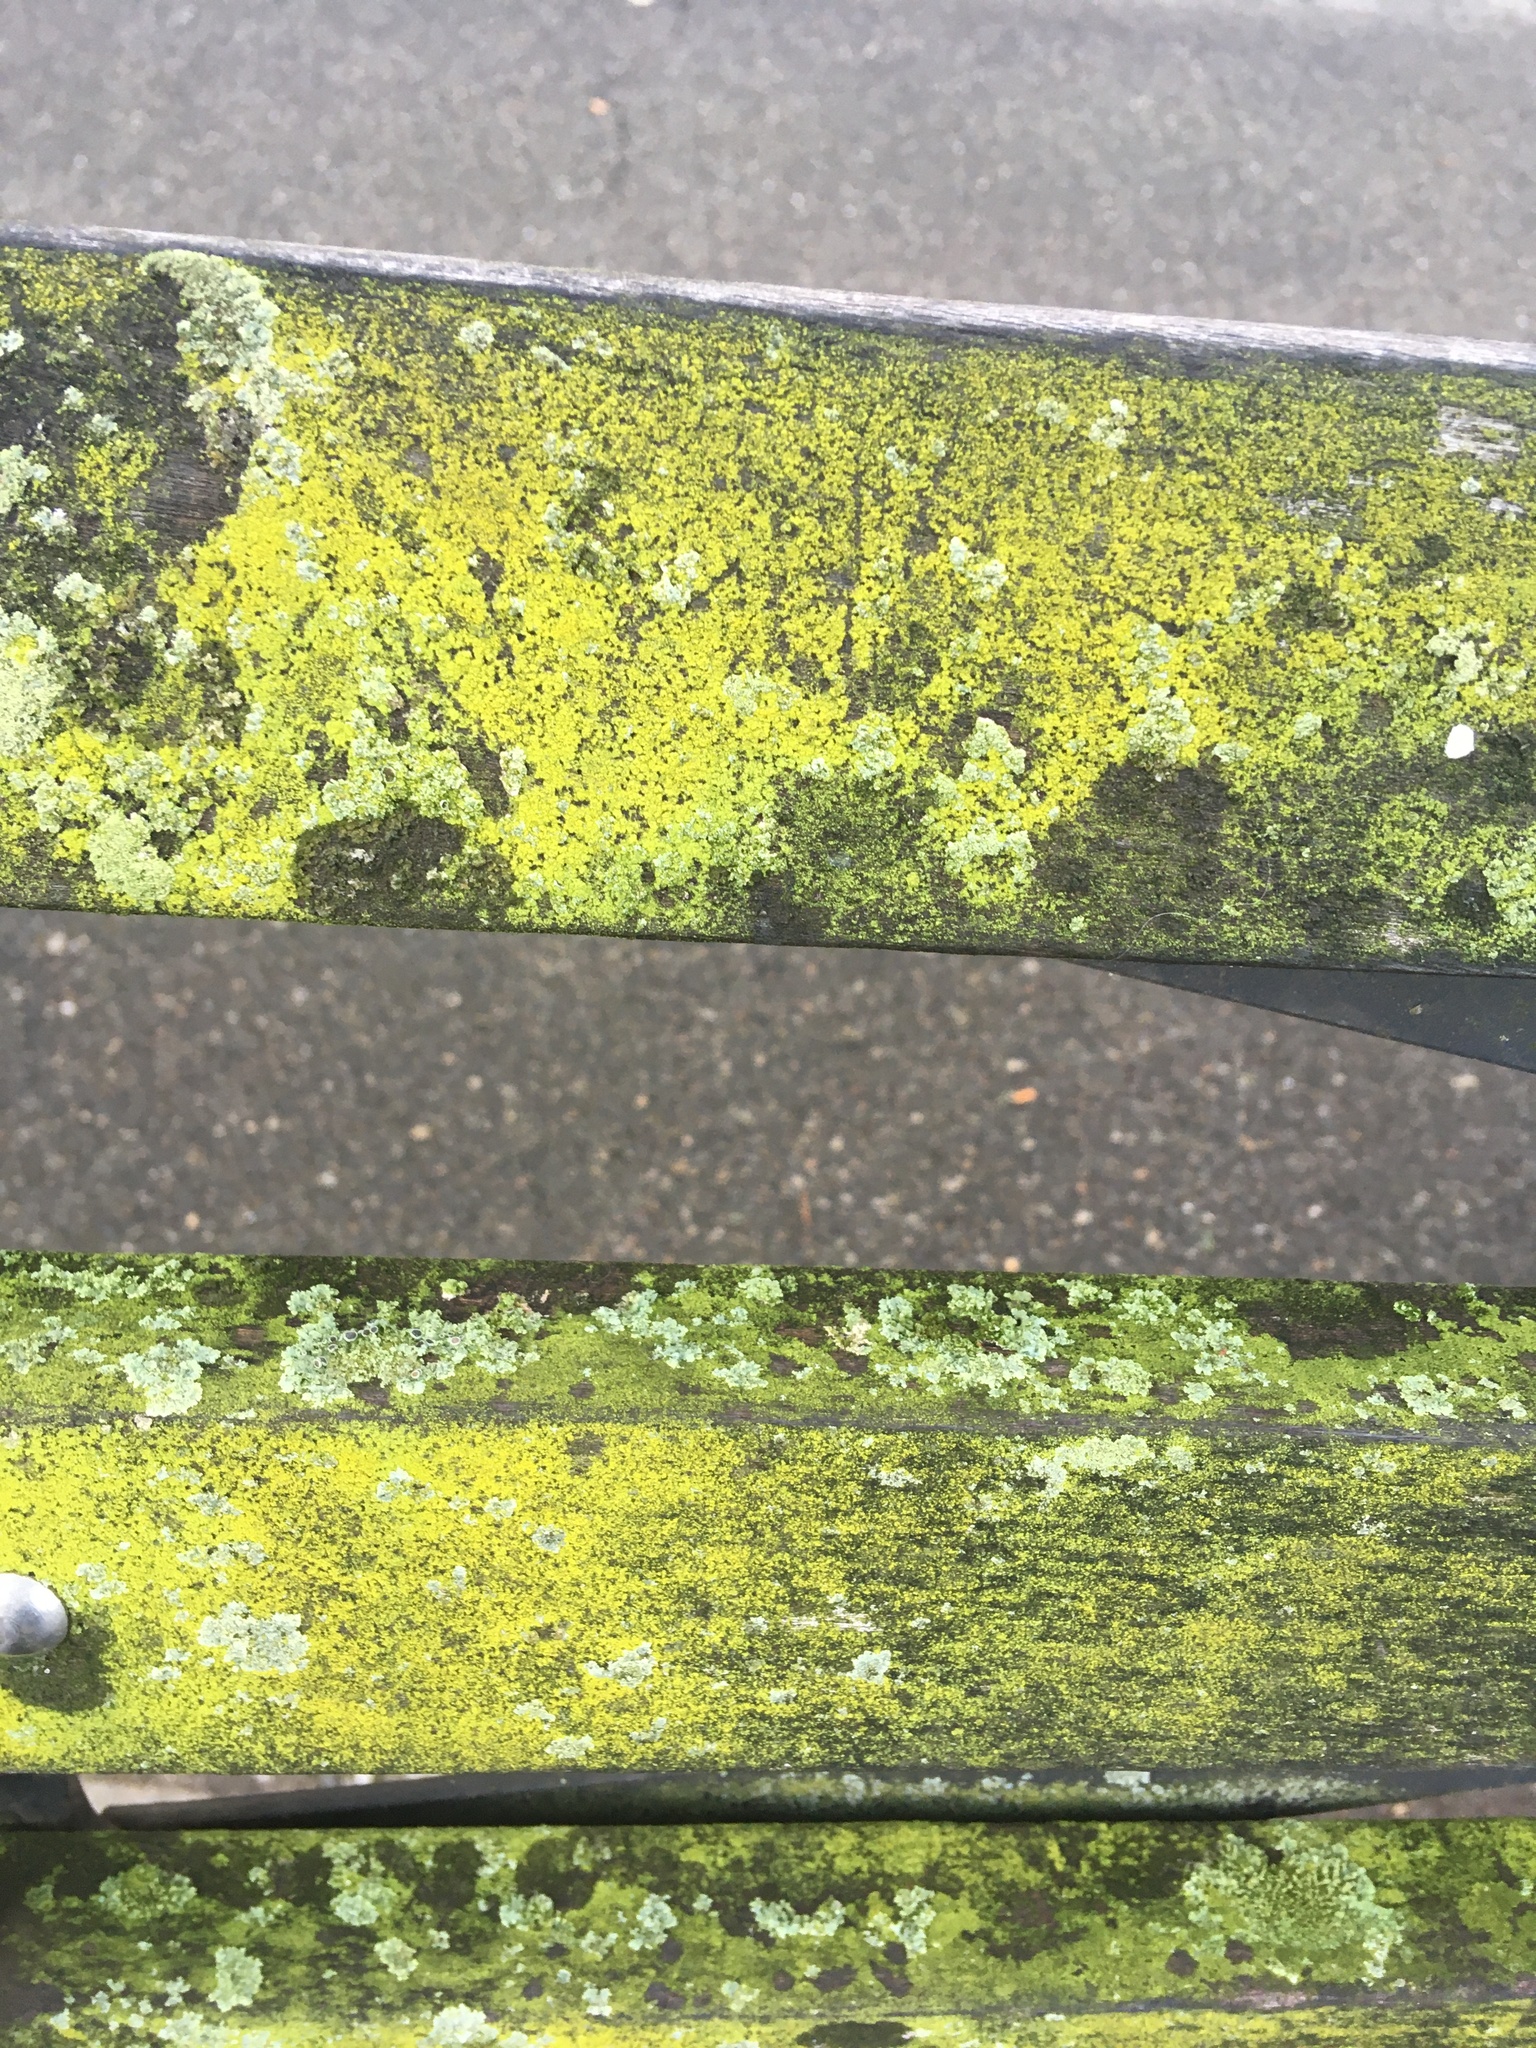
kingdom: Fungi
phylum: Ascomycota
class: Candelariomycetes
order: Candelariales
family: Candelariaceae
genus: Candelaria
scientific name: Candelaria concolor
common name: Candleflame lichen
